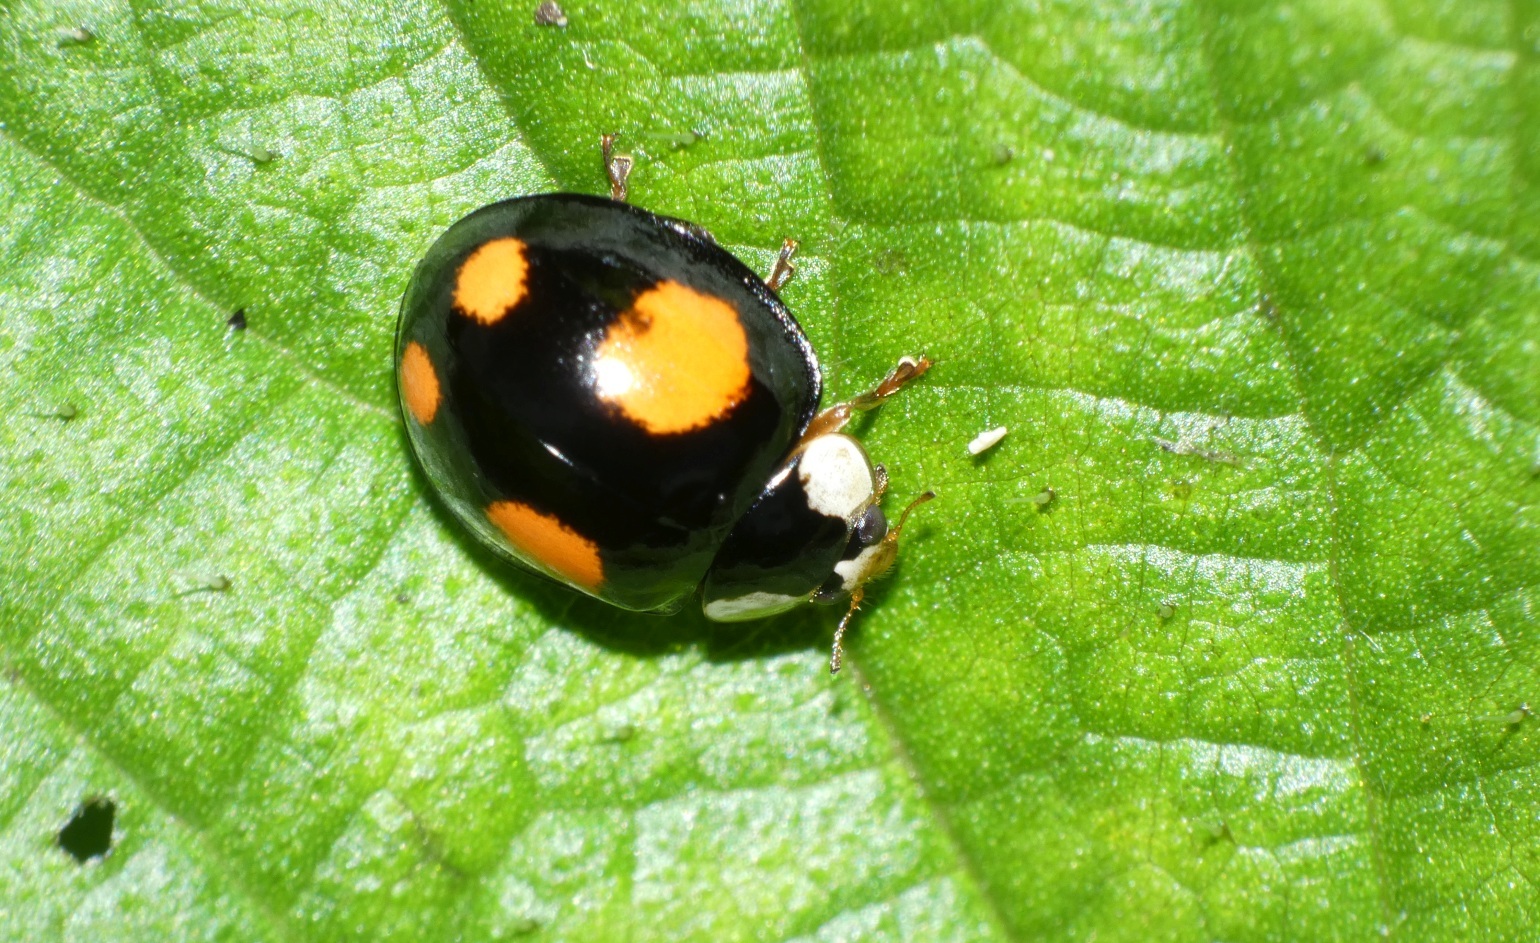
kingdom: Animalia
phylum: Arthropoda
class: Insecta
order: Coleoptera
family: Coccinellidae
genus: Harmonia
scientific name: Harmonia axyridis
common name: Harlequin ladybird
